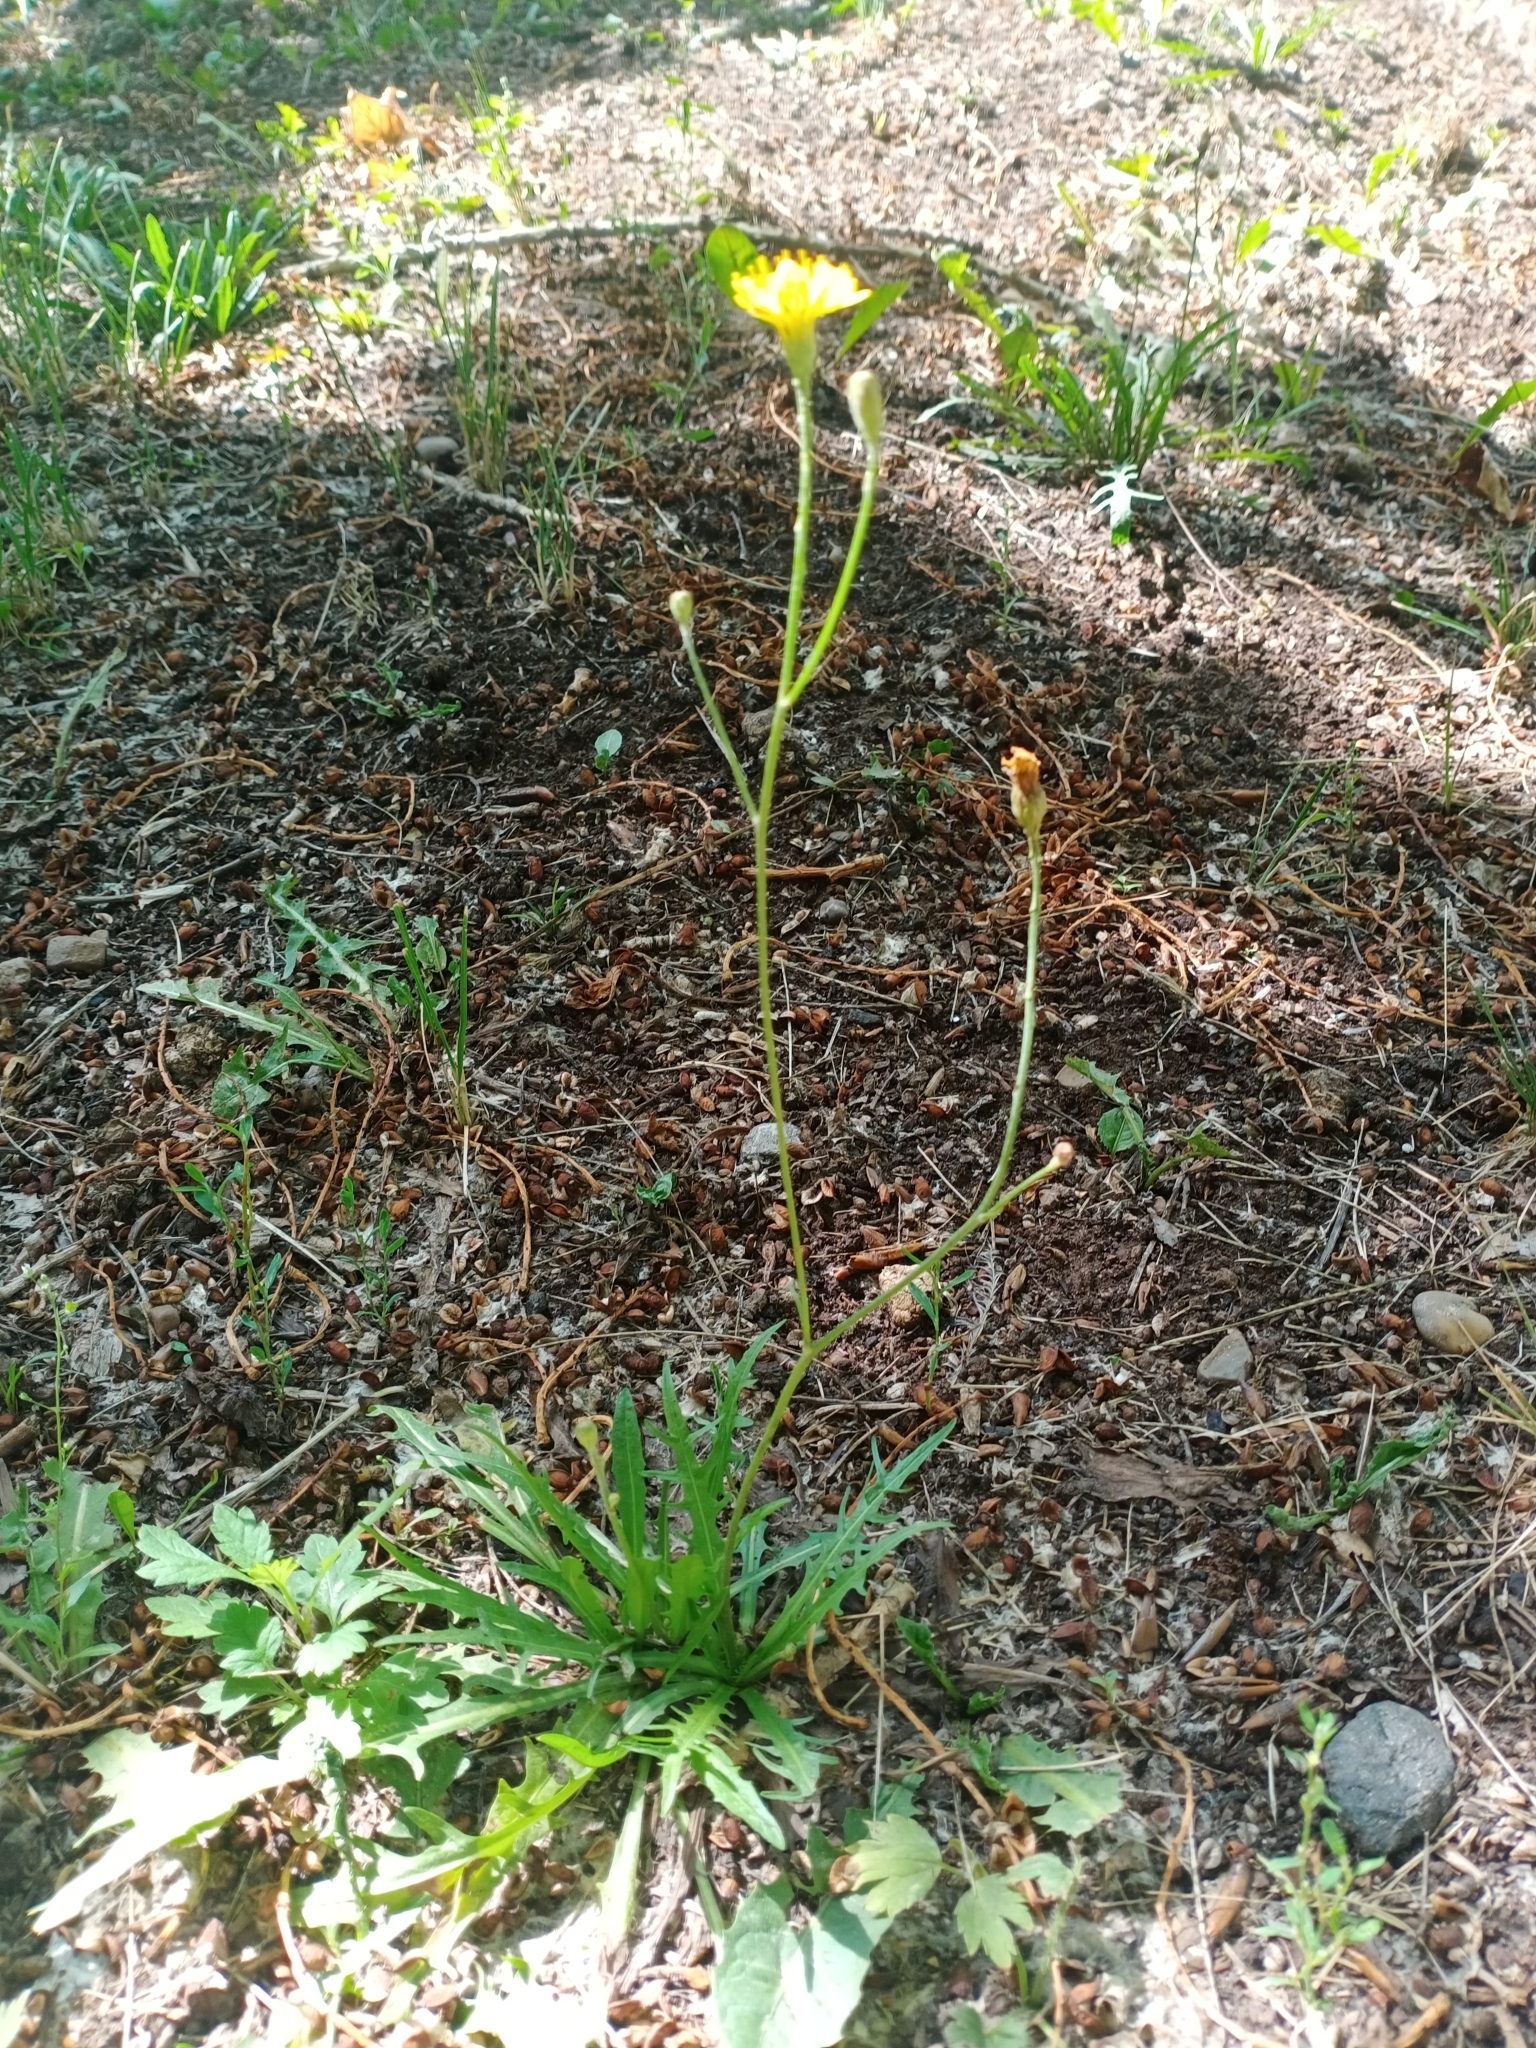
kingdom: Plantae
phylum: Tracheophyta
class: Magnoliopsida
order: Asterales
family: Asteraceae
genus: Scorzoneroides
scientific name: Scorzoneroides autumnalis
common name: Autumn hawkbit
